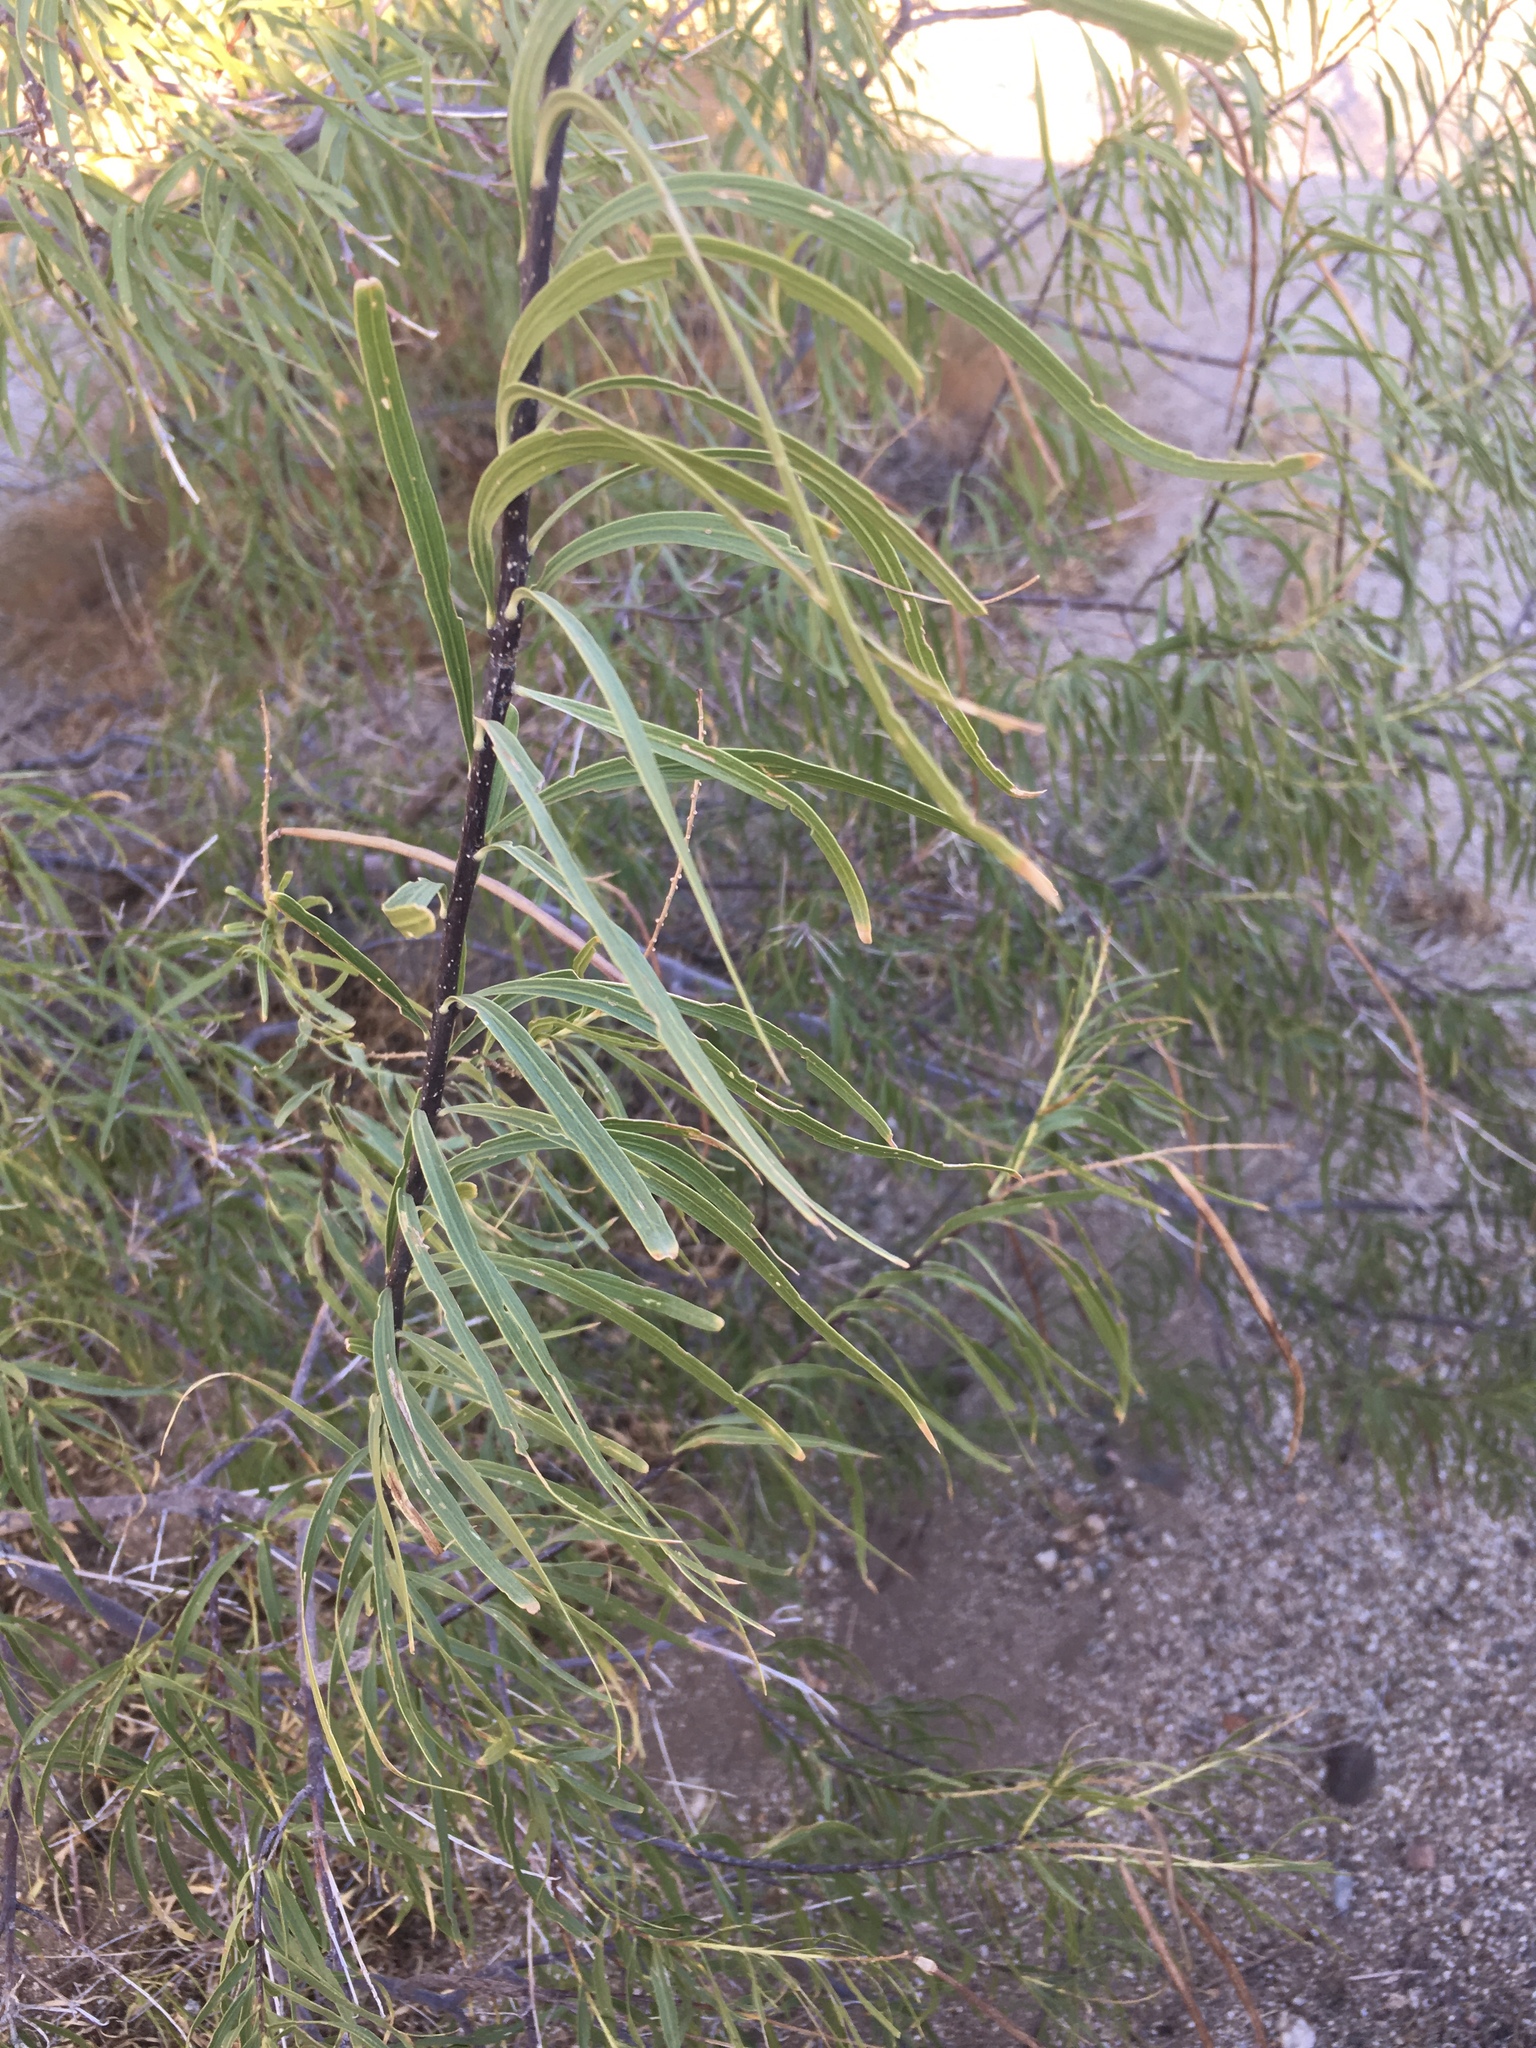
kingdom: Plantae
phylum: Tracheophyta
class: Magnoliopsida
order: Lamiales
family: Bignoniaceae
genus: Chilopsis
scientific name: Chilopsis linearis
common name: Desert-willow
